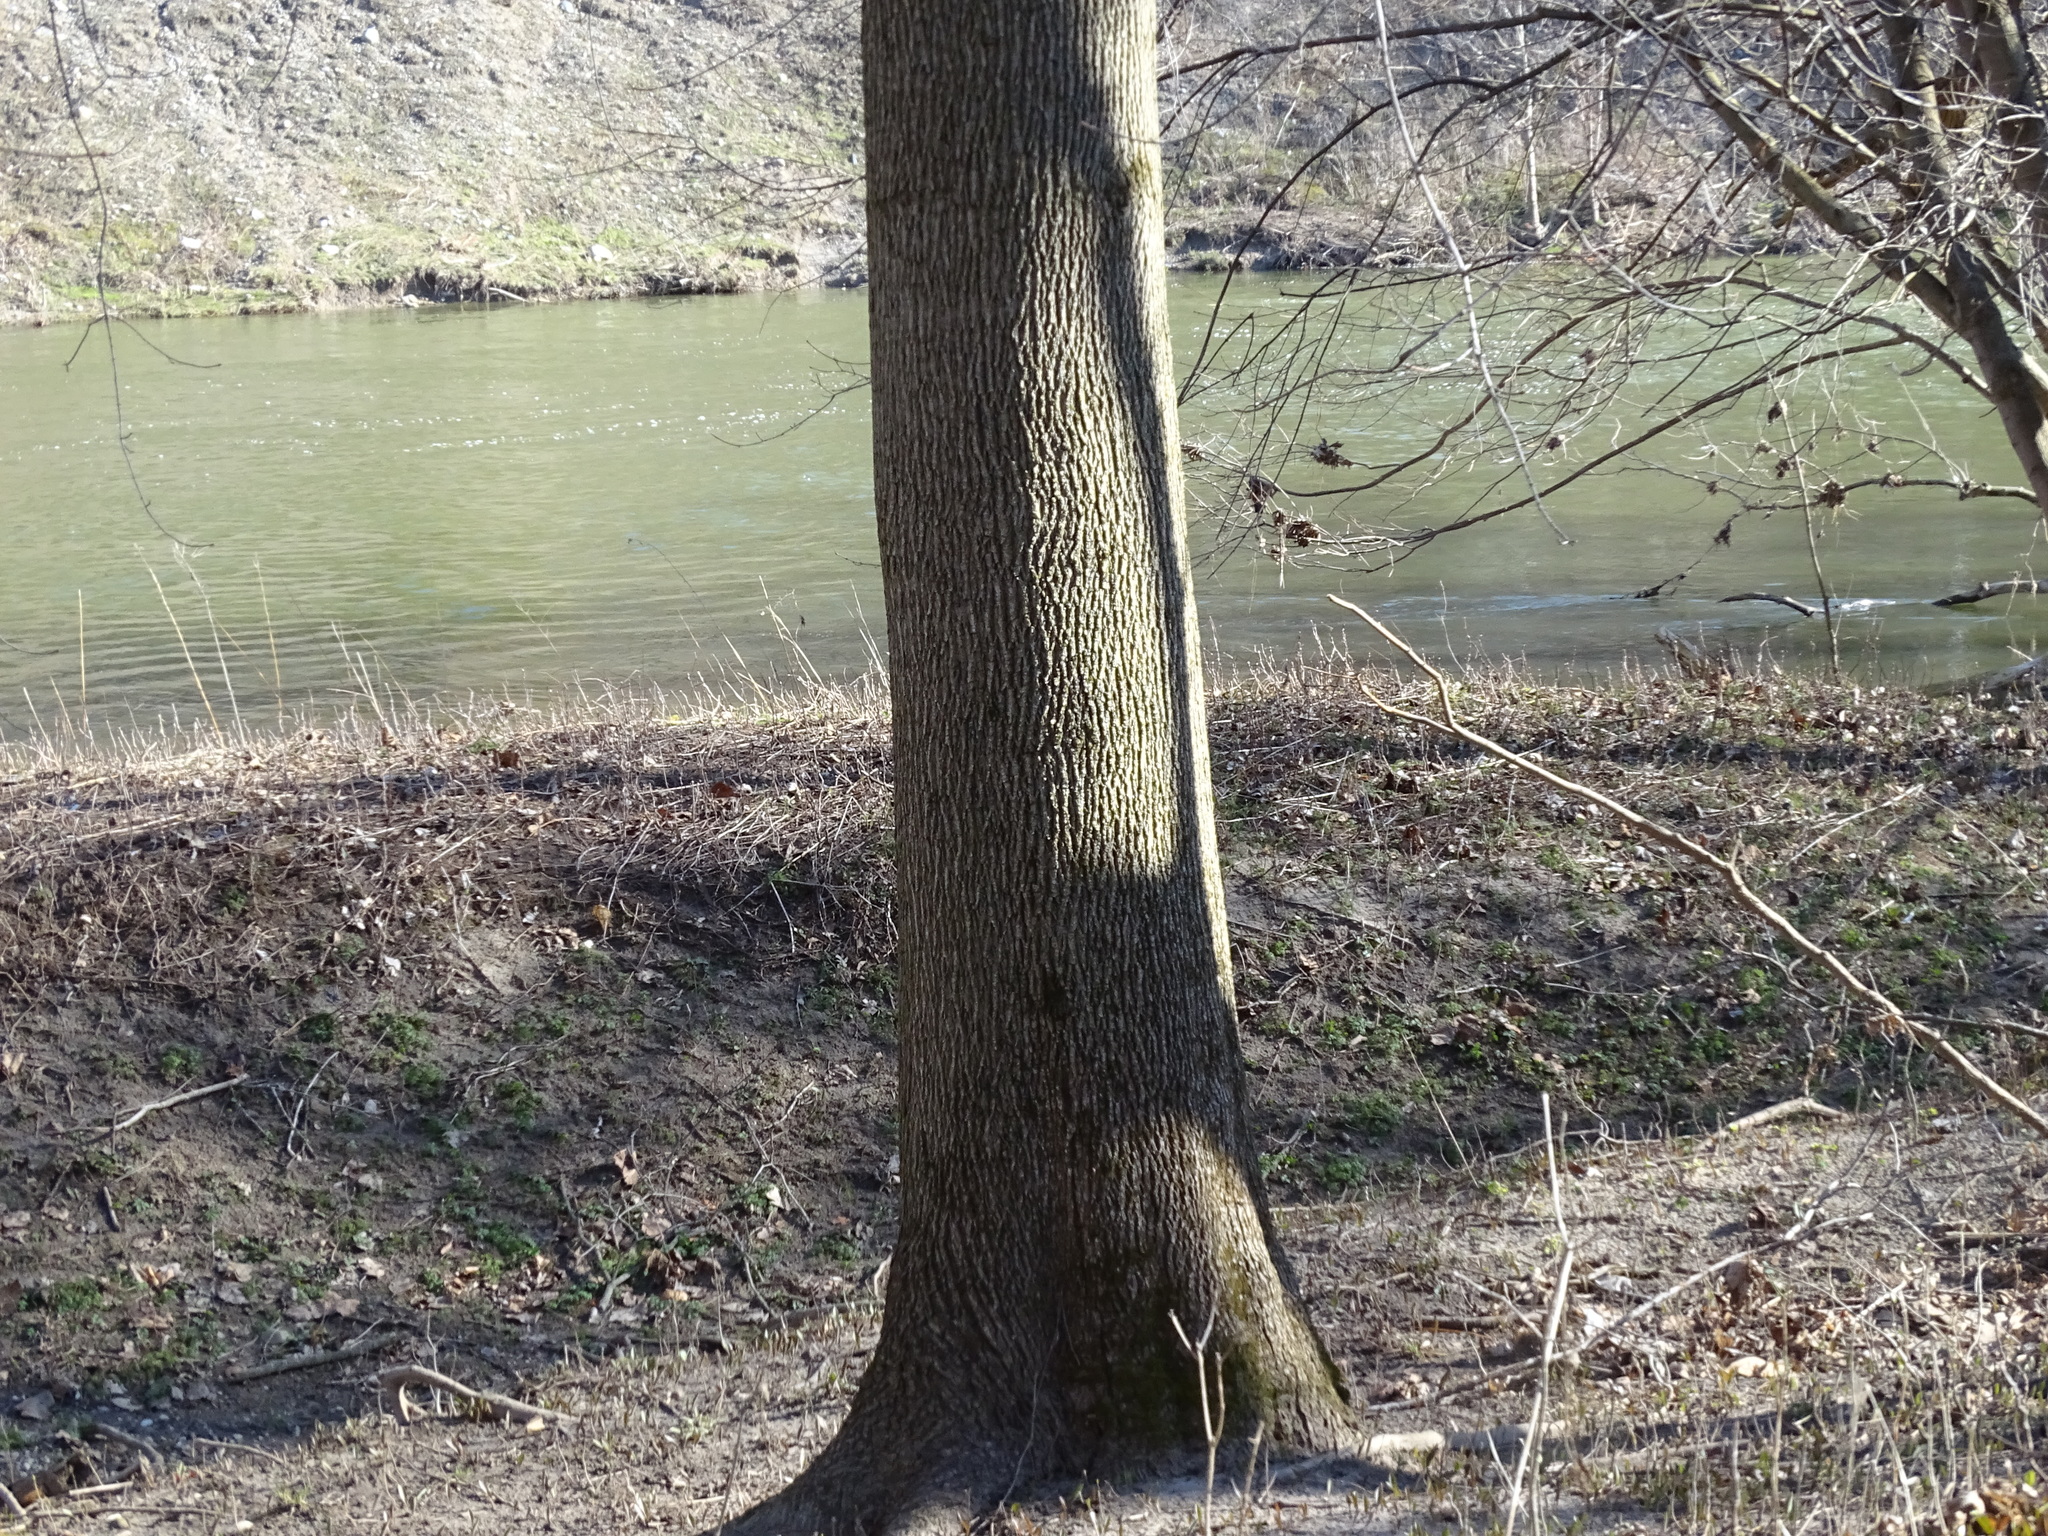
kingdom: Plantae
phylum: Tracheophyta
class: Magnoliopsida
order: Sapindales
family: Sapindaceae
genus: Acer
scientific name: Acer platanoides
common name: Norway maple
